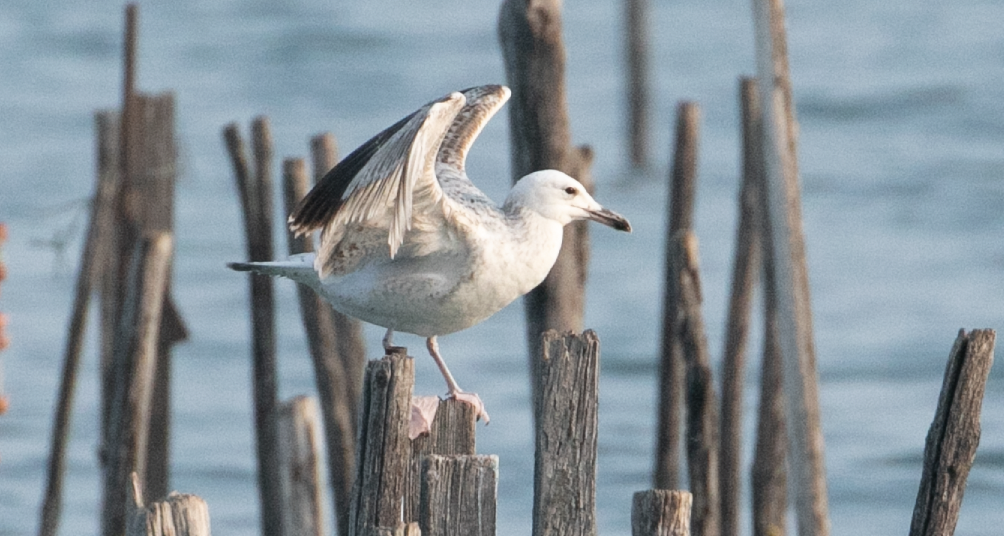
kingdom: Animalia
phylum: Chordata
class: Aves
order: Charadriiformes
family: Laridae
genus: Larus
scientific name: Larus cachinnans
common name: Caspian gull
